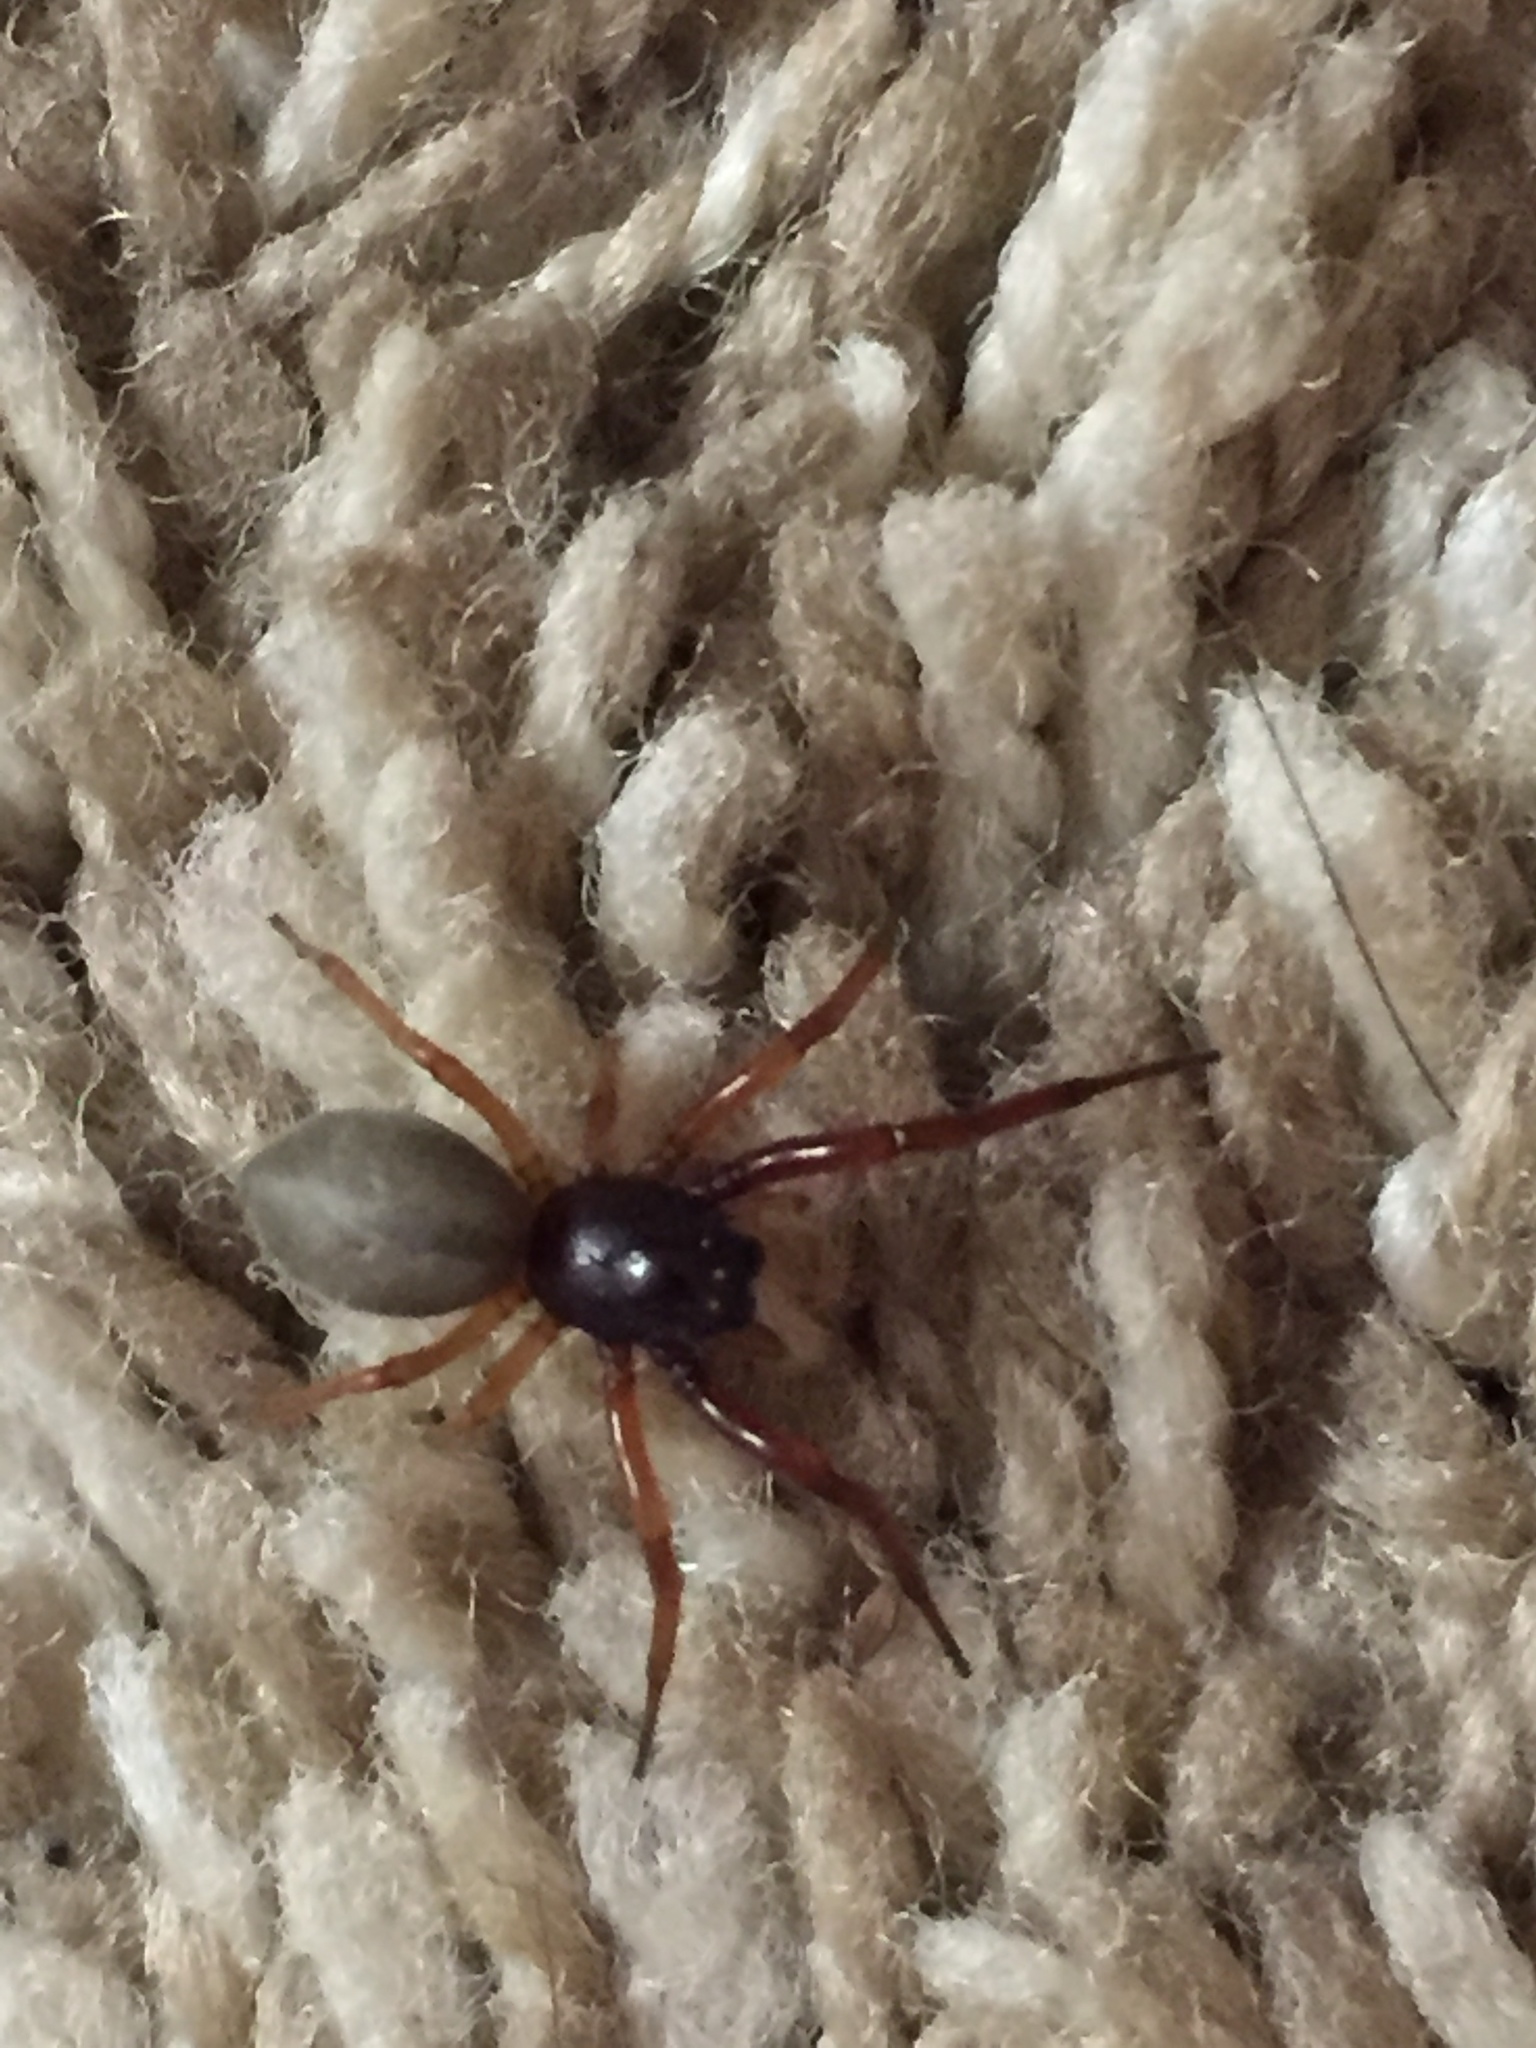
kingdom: Animalia
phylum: Arthropoda
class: Arachnida
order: Araneae
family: Trachelidae
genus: Trachelas
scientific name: Trachelas tranquillus
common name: Broad-faced sac spider
